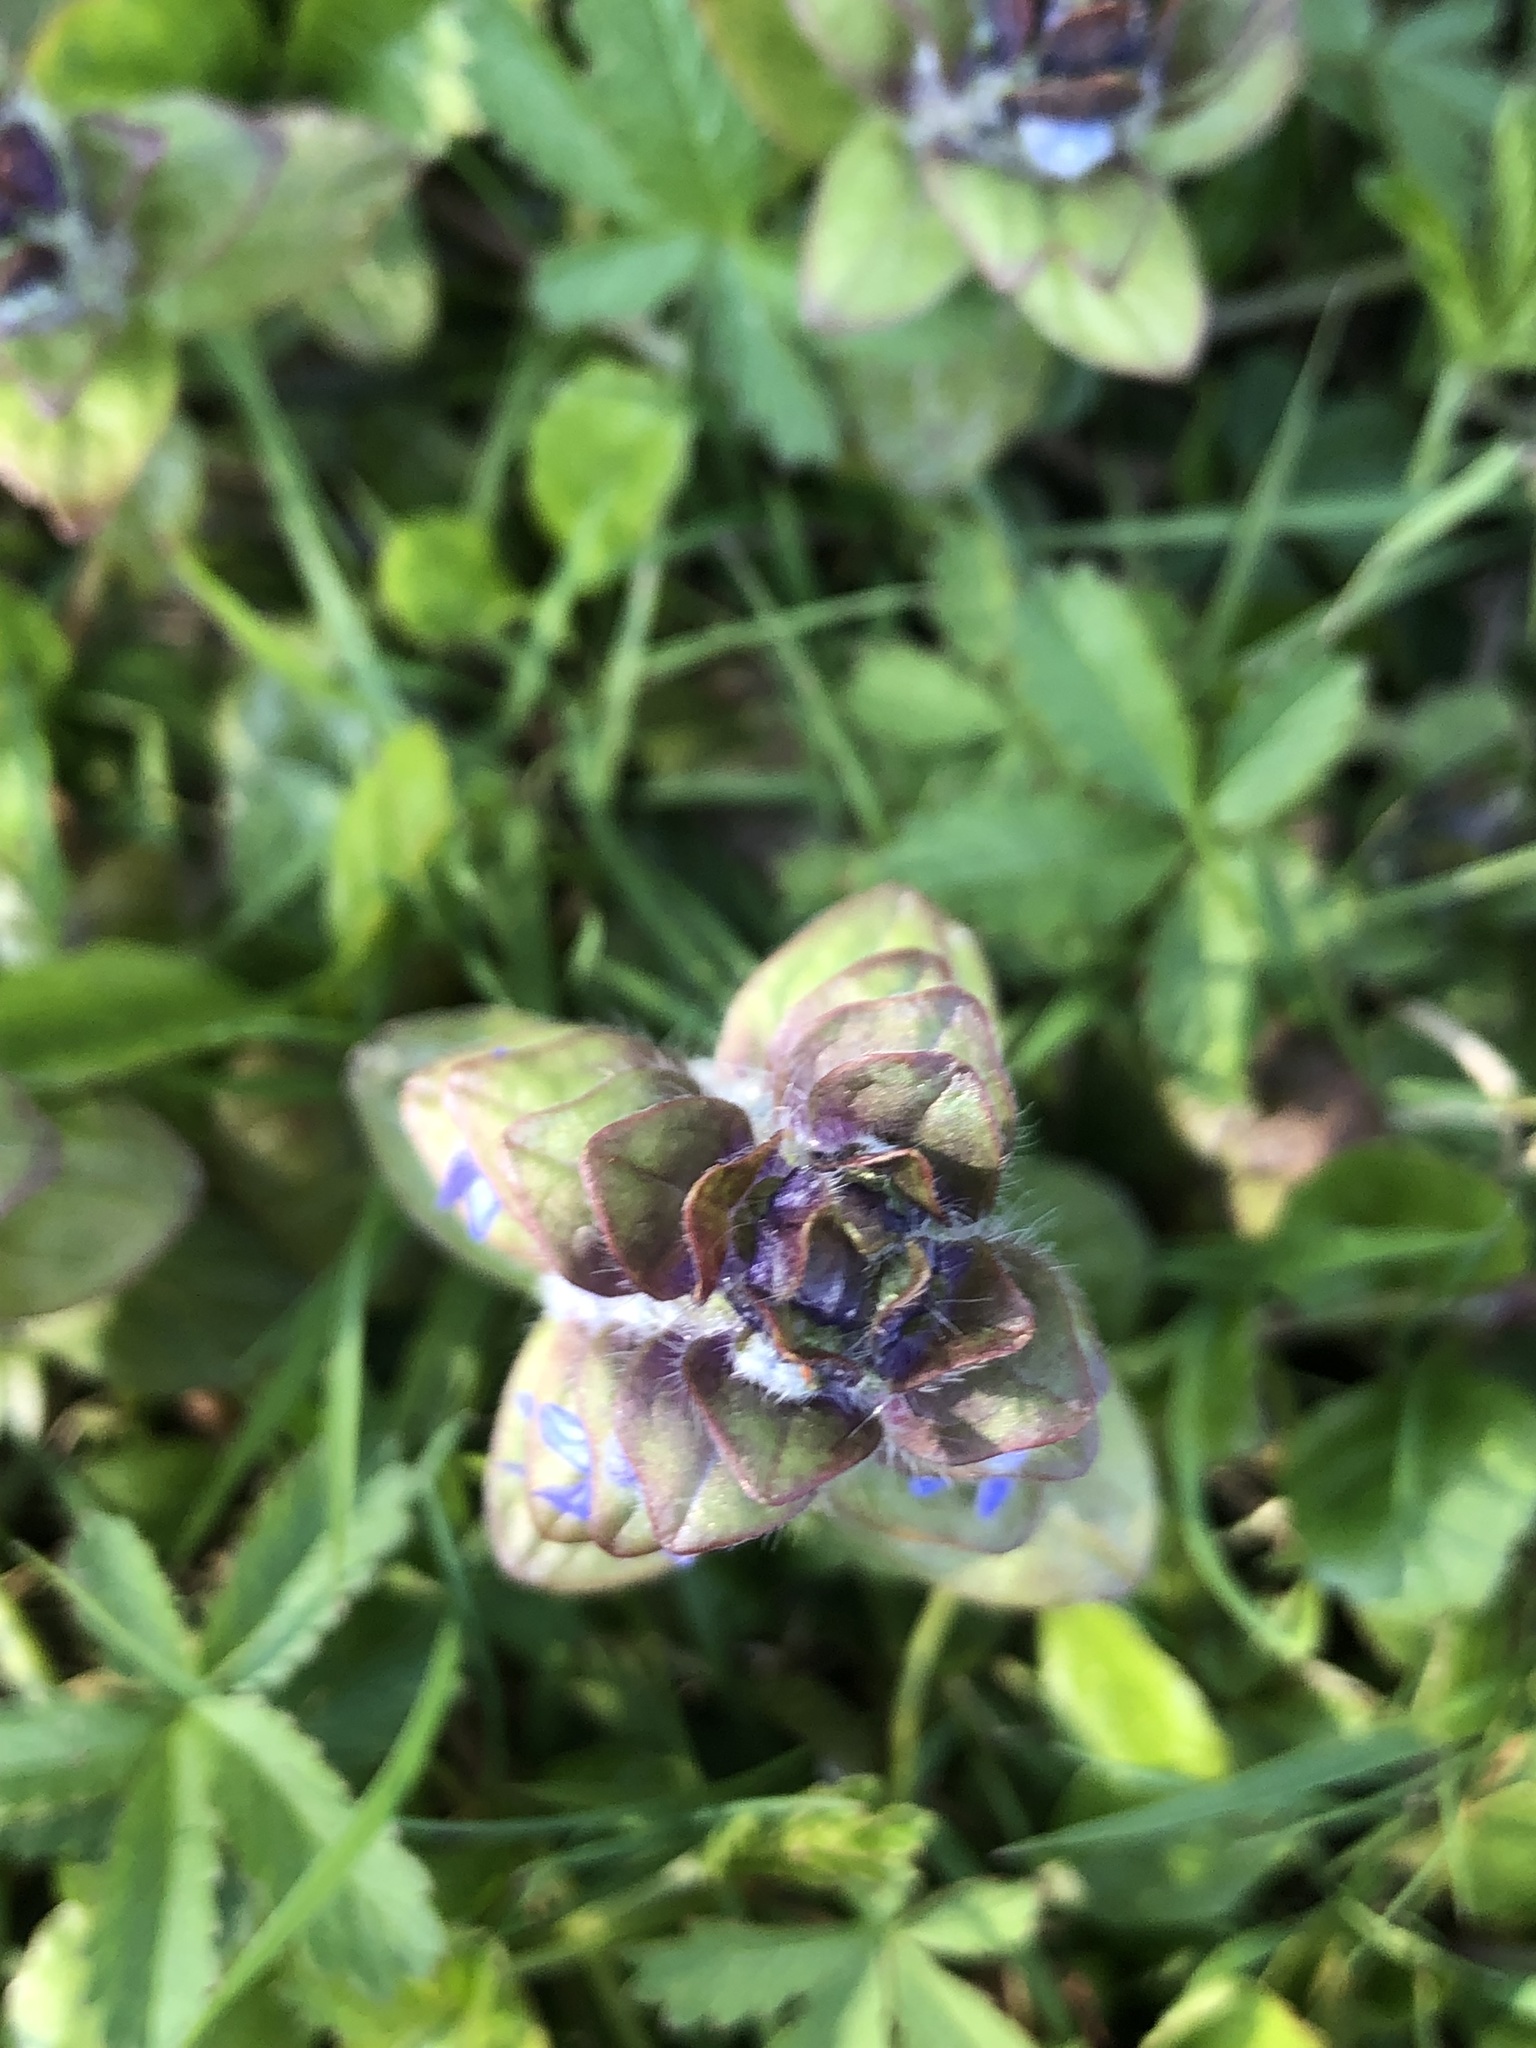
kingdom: Plantae
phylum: Tracheophyta
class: Magnoliopsida
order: Lamiales
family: Lamiaceae
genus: Ajuga
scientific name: Ajuga reptans
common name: Bugle
